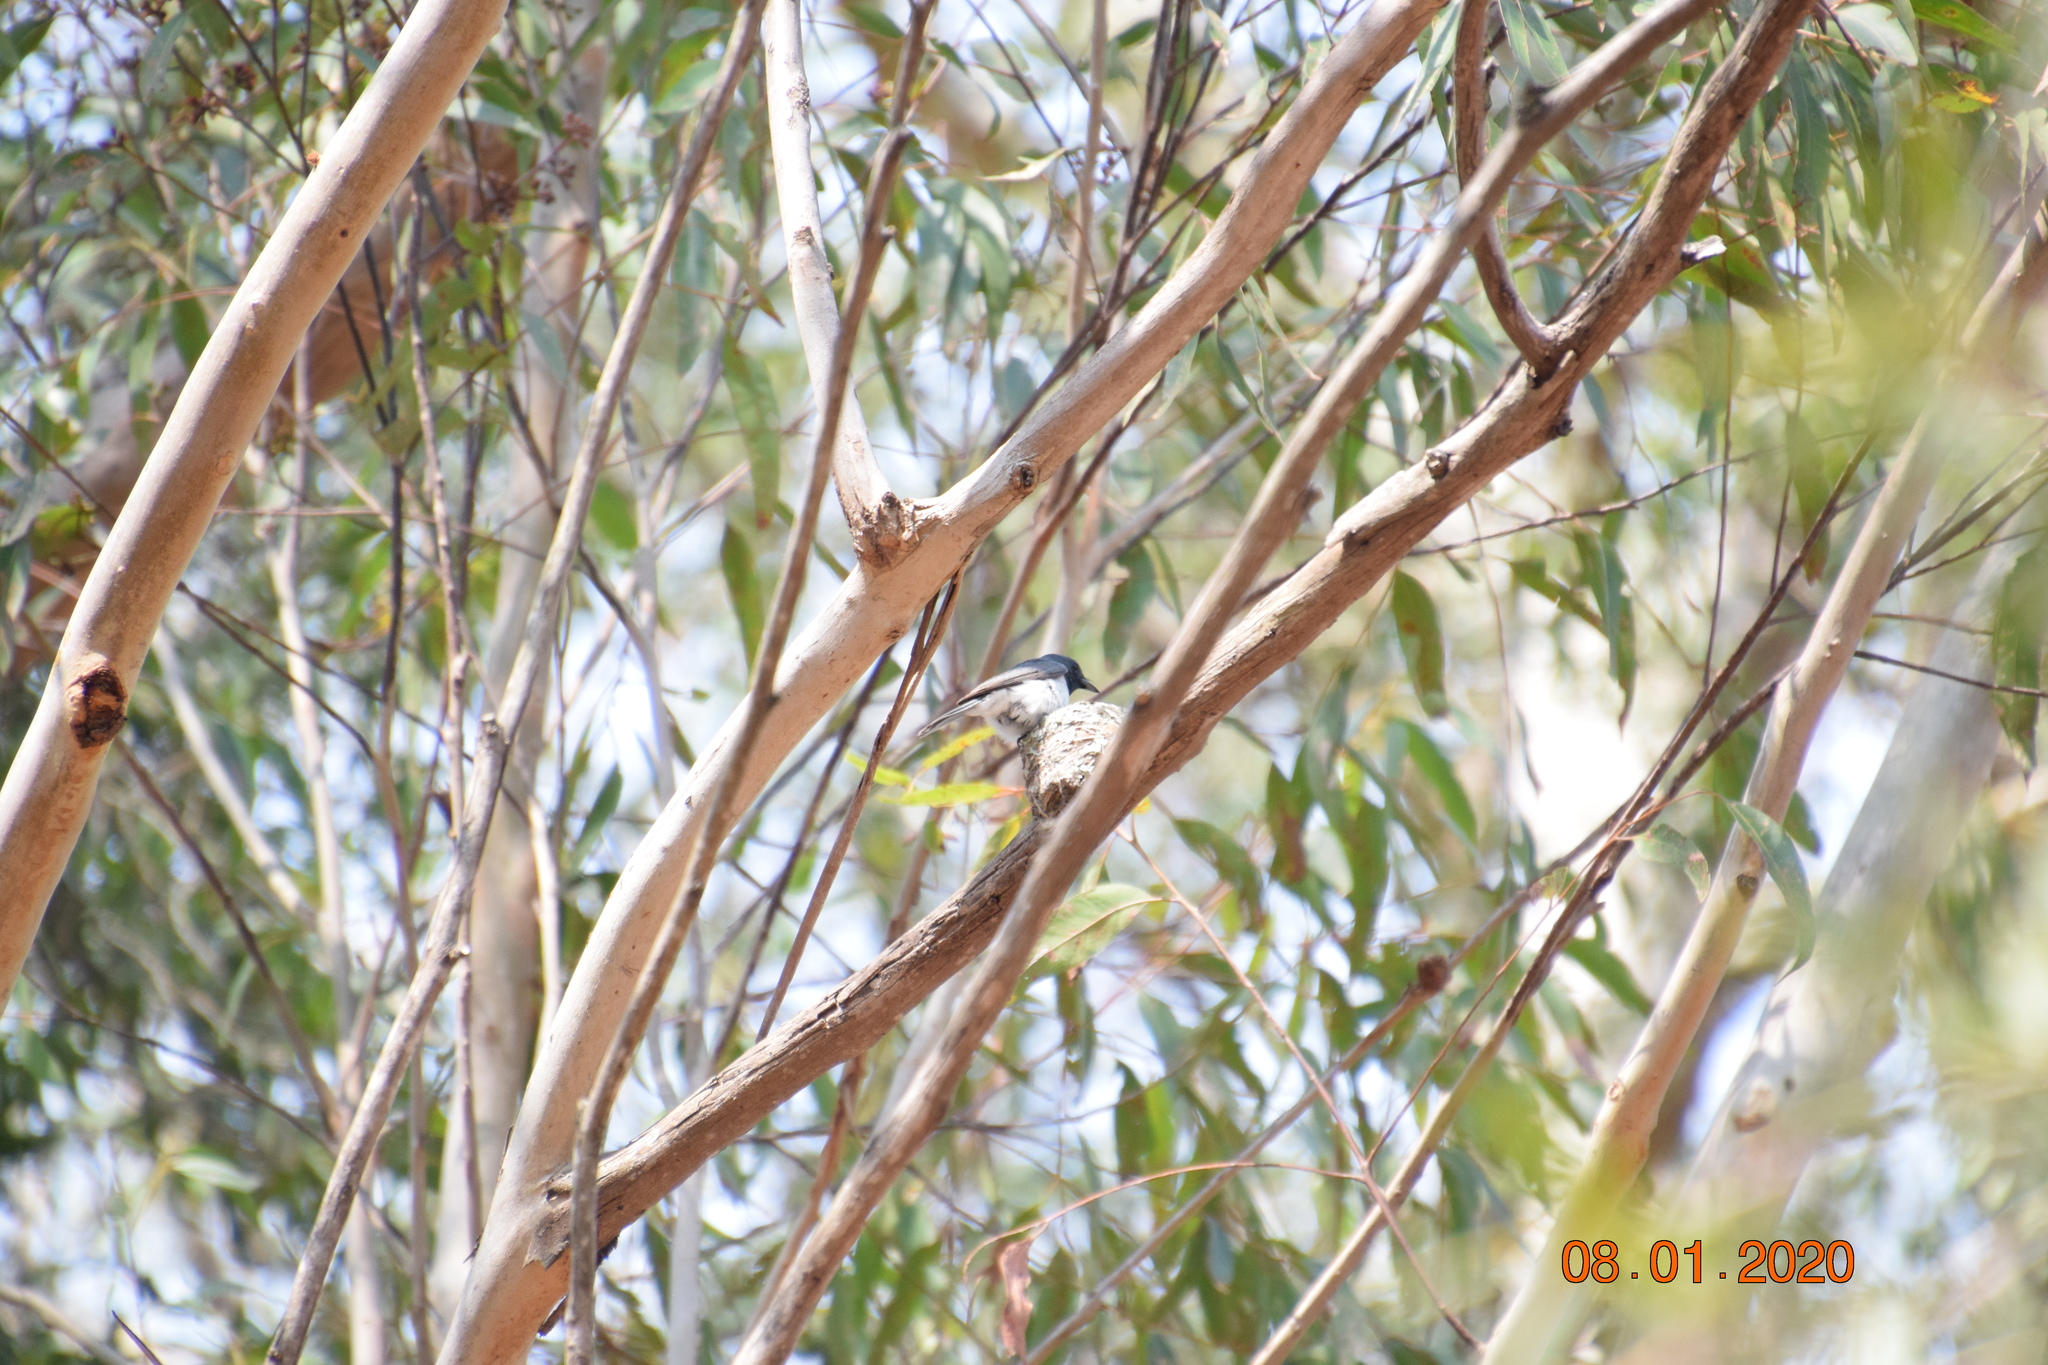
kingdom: Animalia
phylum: Chordata
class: Aves
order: Passeriformes
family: Monarchidae
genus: Myiagra
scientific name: Myiagra rubecula
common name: Leaden flycatcher
